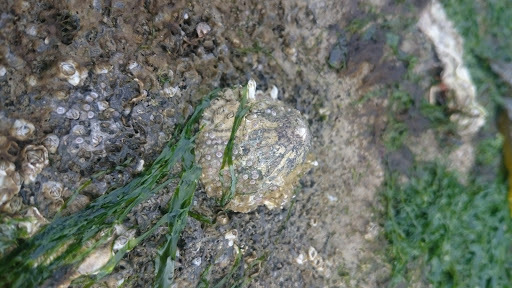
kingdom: Animalia
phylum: Mollusca
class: Gastropoda
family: Patellidae
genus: Patella
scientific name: Patella vulgata
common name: Common limpet
